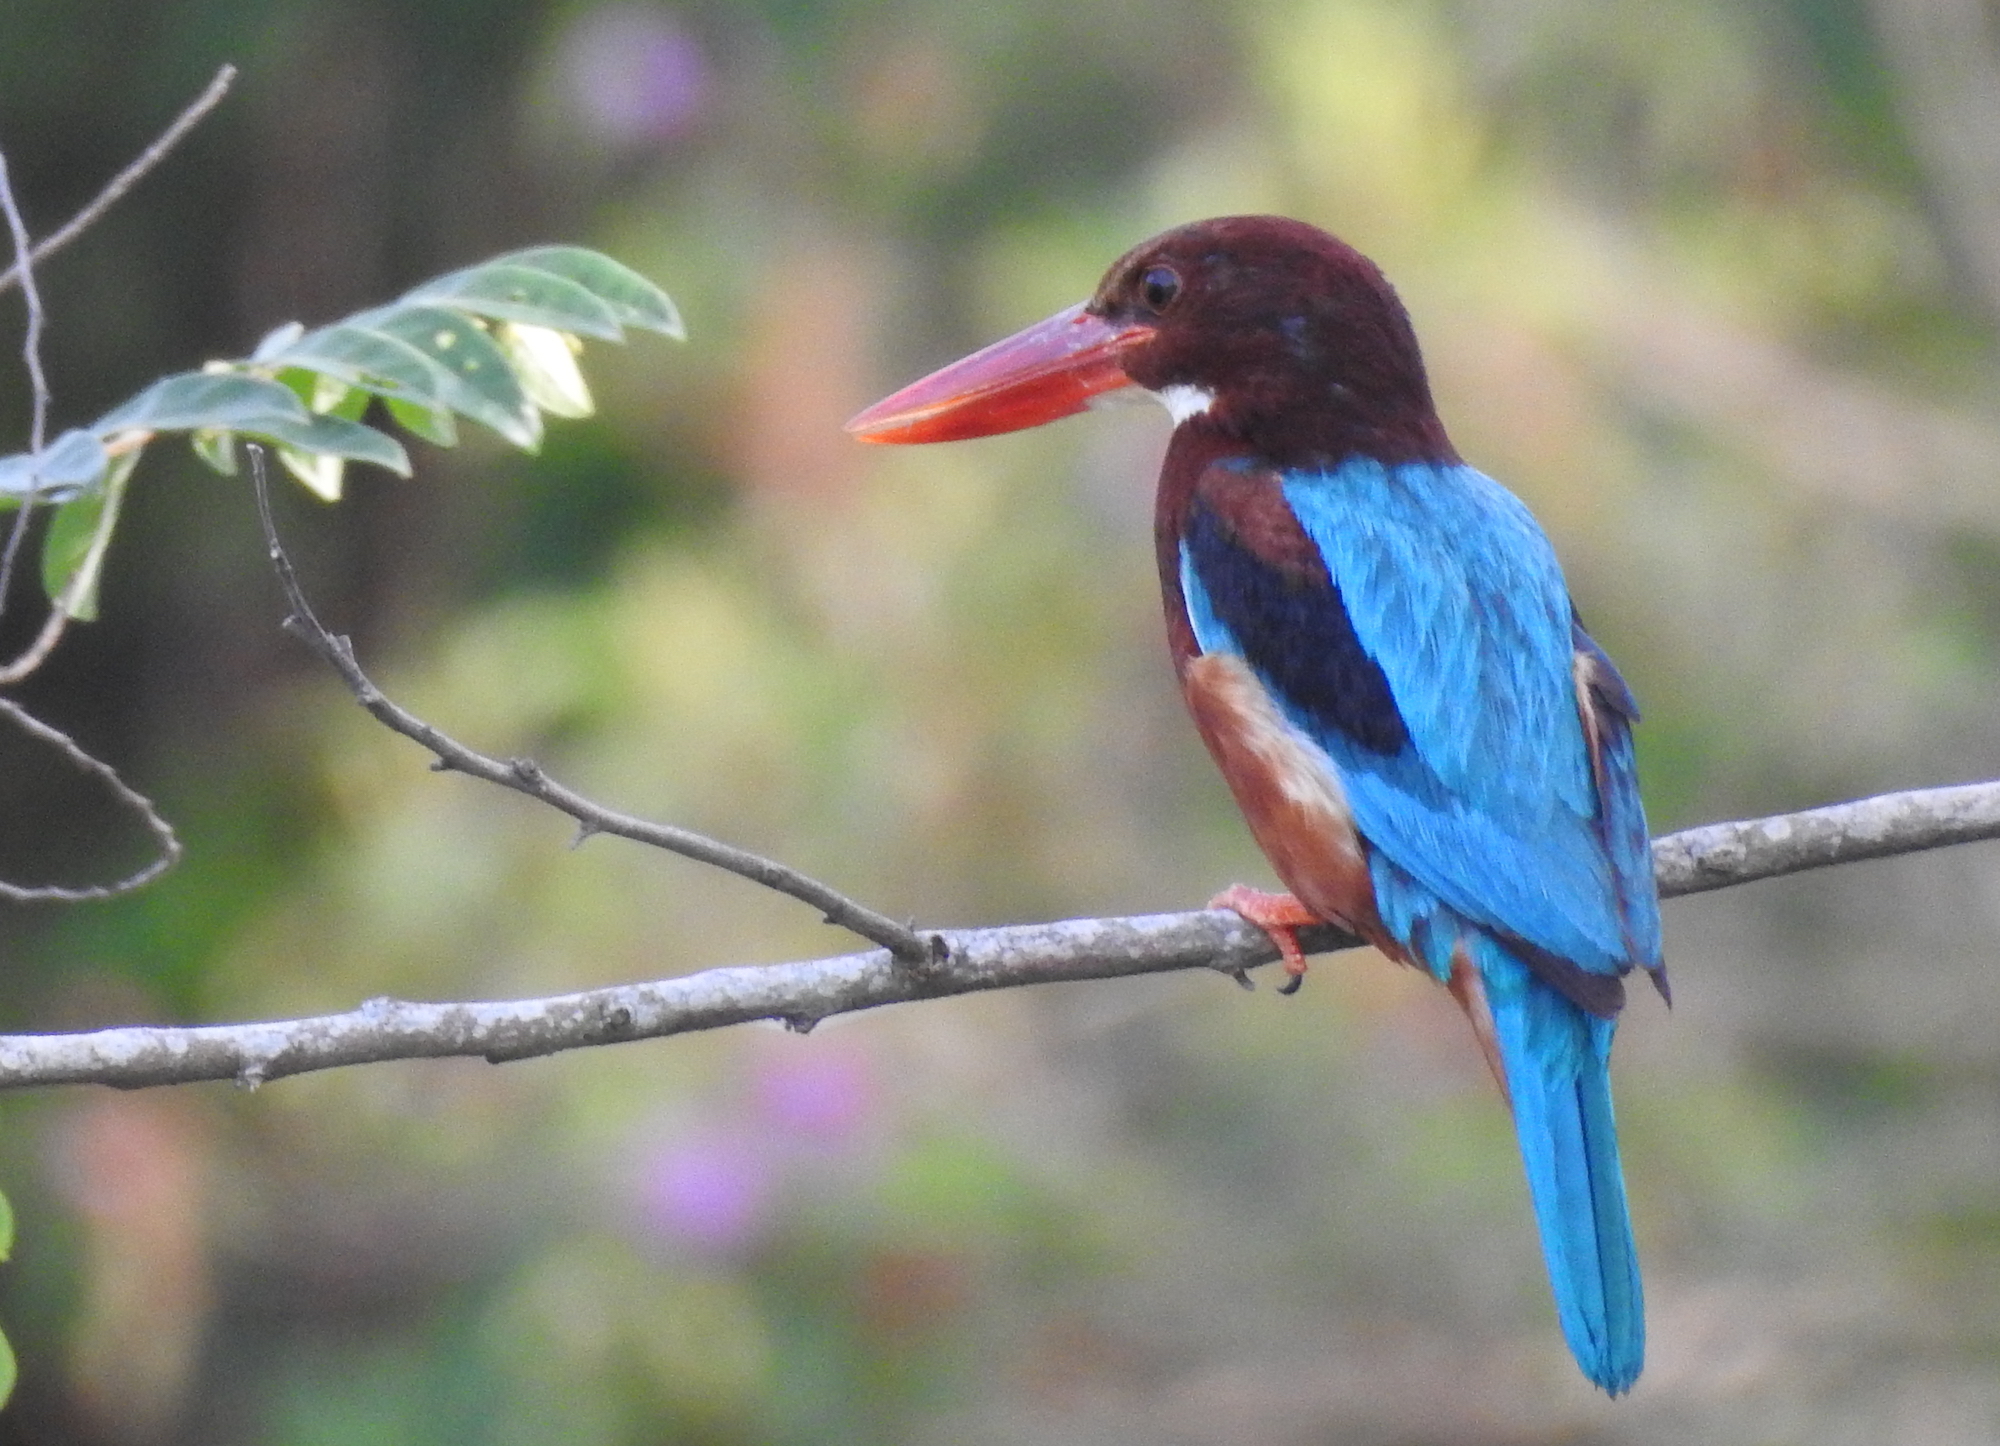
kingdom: Animalia
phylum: Chordata
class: Aves
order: Coraciiformes
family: Alcedinidae
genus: Halcyon
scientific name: Halcyon smyrnensis
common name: White-throated kingfisher
